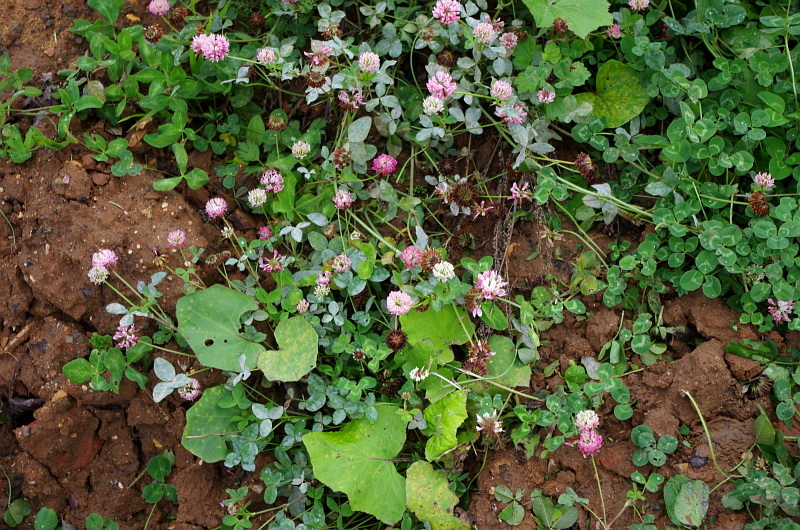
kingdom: Plantae
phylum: Tracheophyta
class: Magnoliopsida
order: Fabales
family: Fabaceae
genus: Trifolium
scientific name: Trifolium hybridum
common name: Alsike clover
